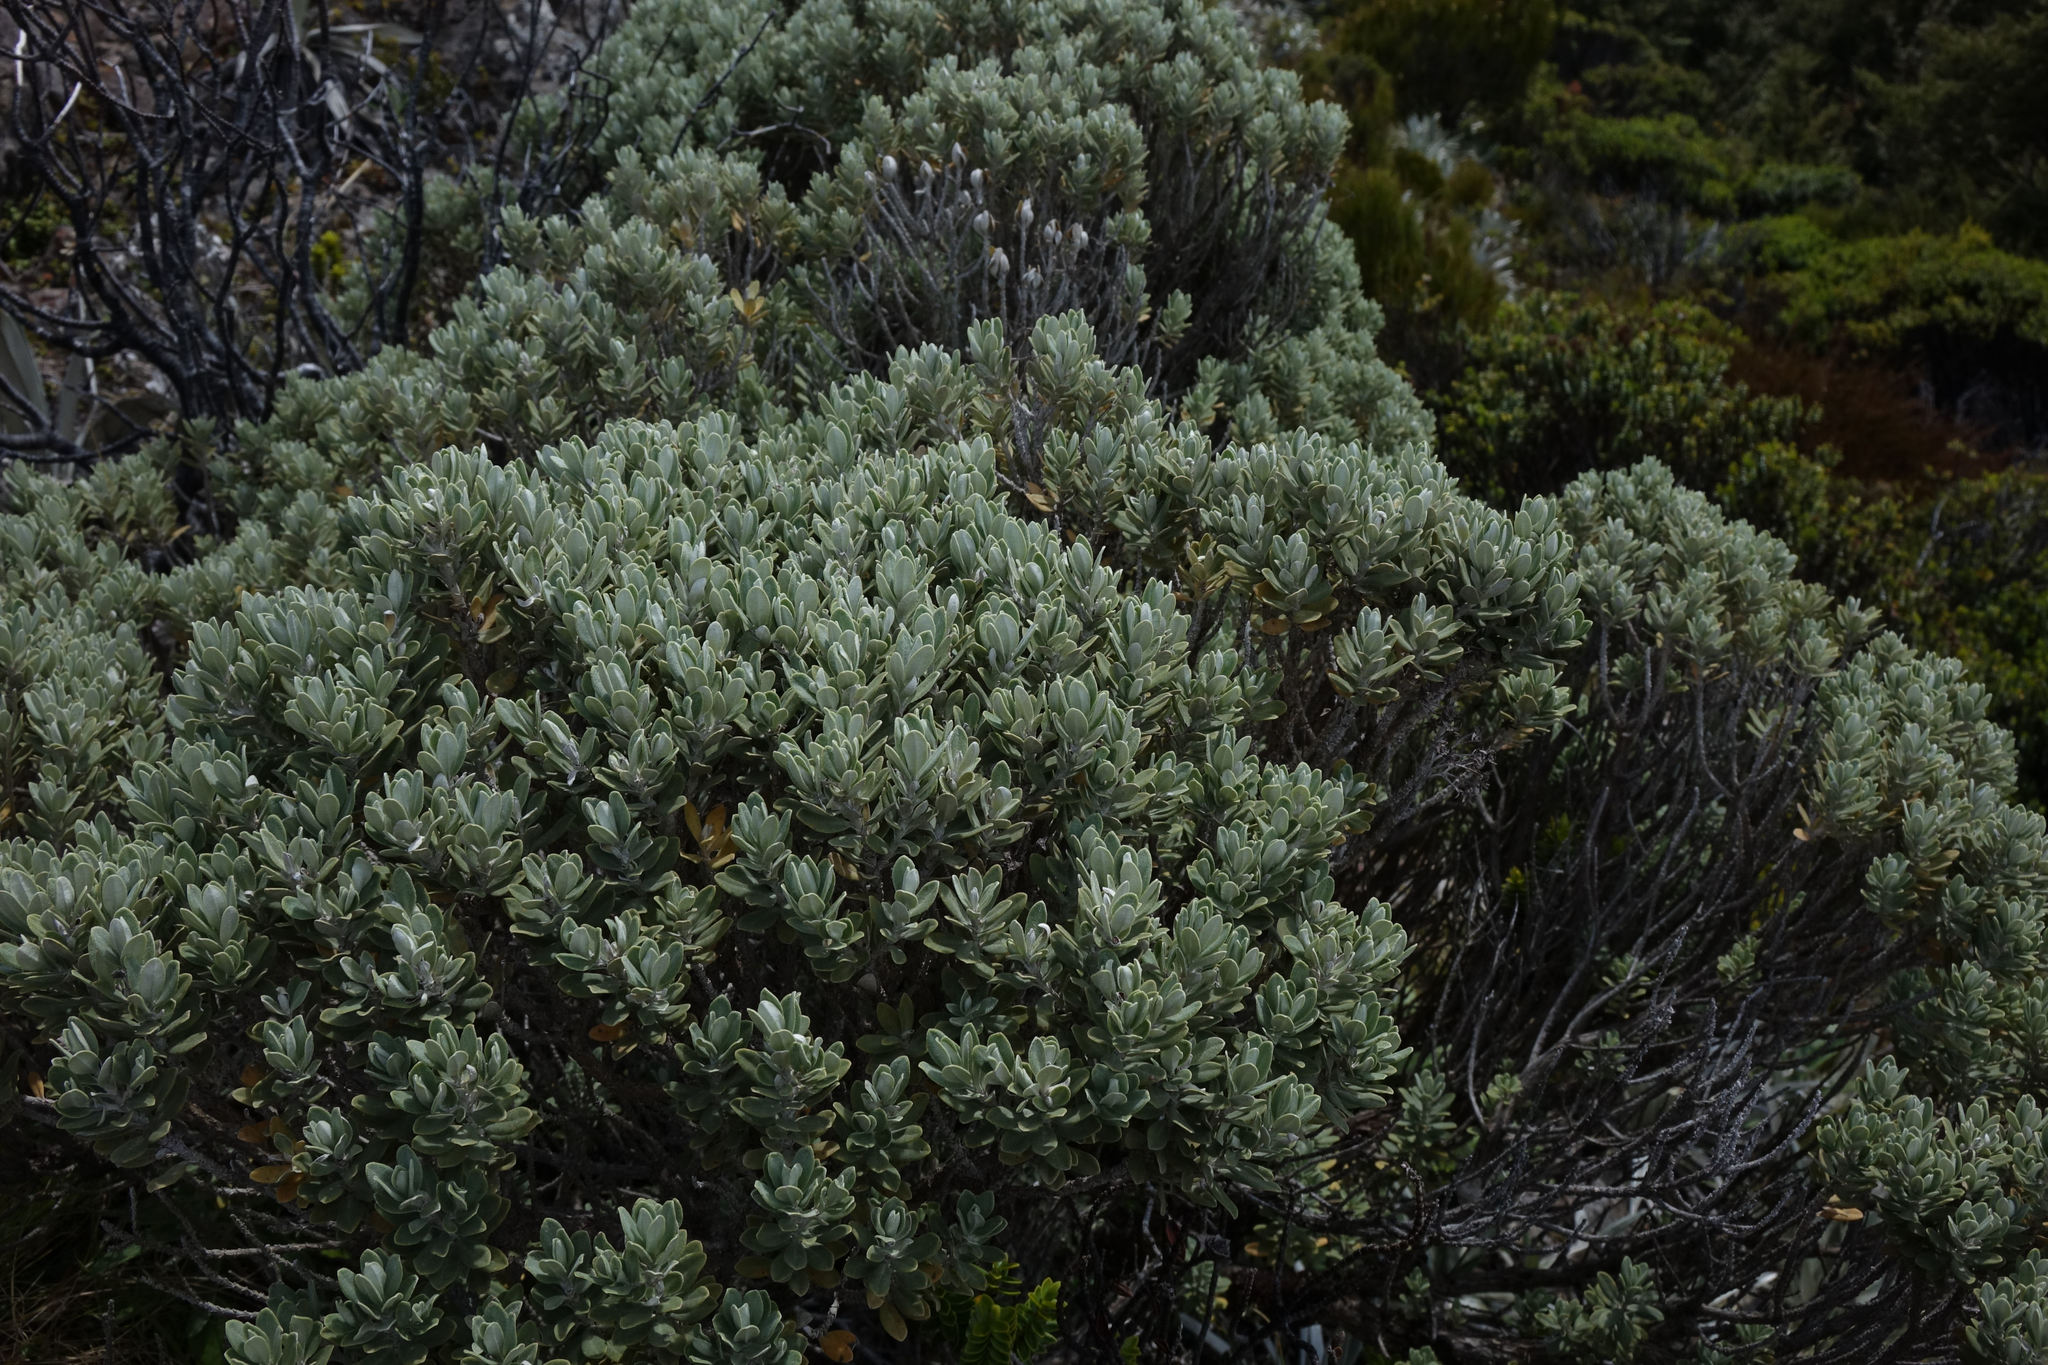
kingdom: Plantae
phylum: Tracheophyta
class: Magnoliopsida
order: Asterales
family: Asteraceae
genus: Olearia
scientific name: Olearia moschata
